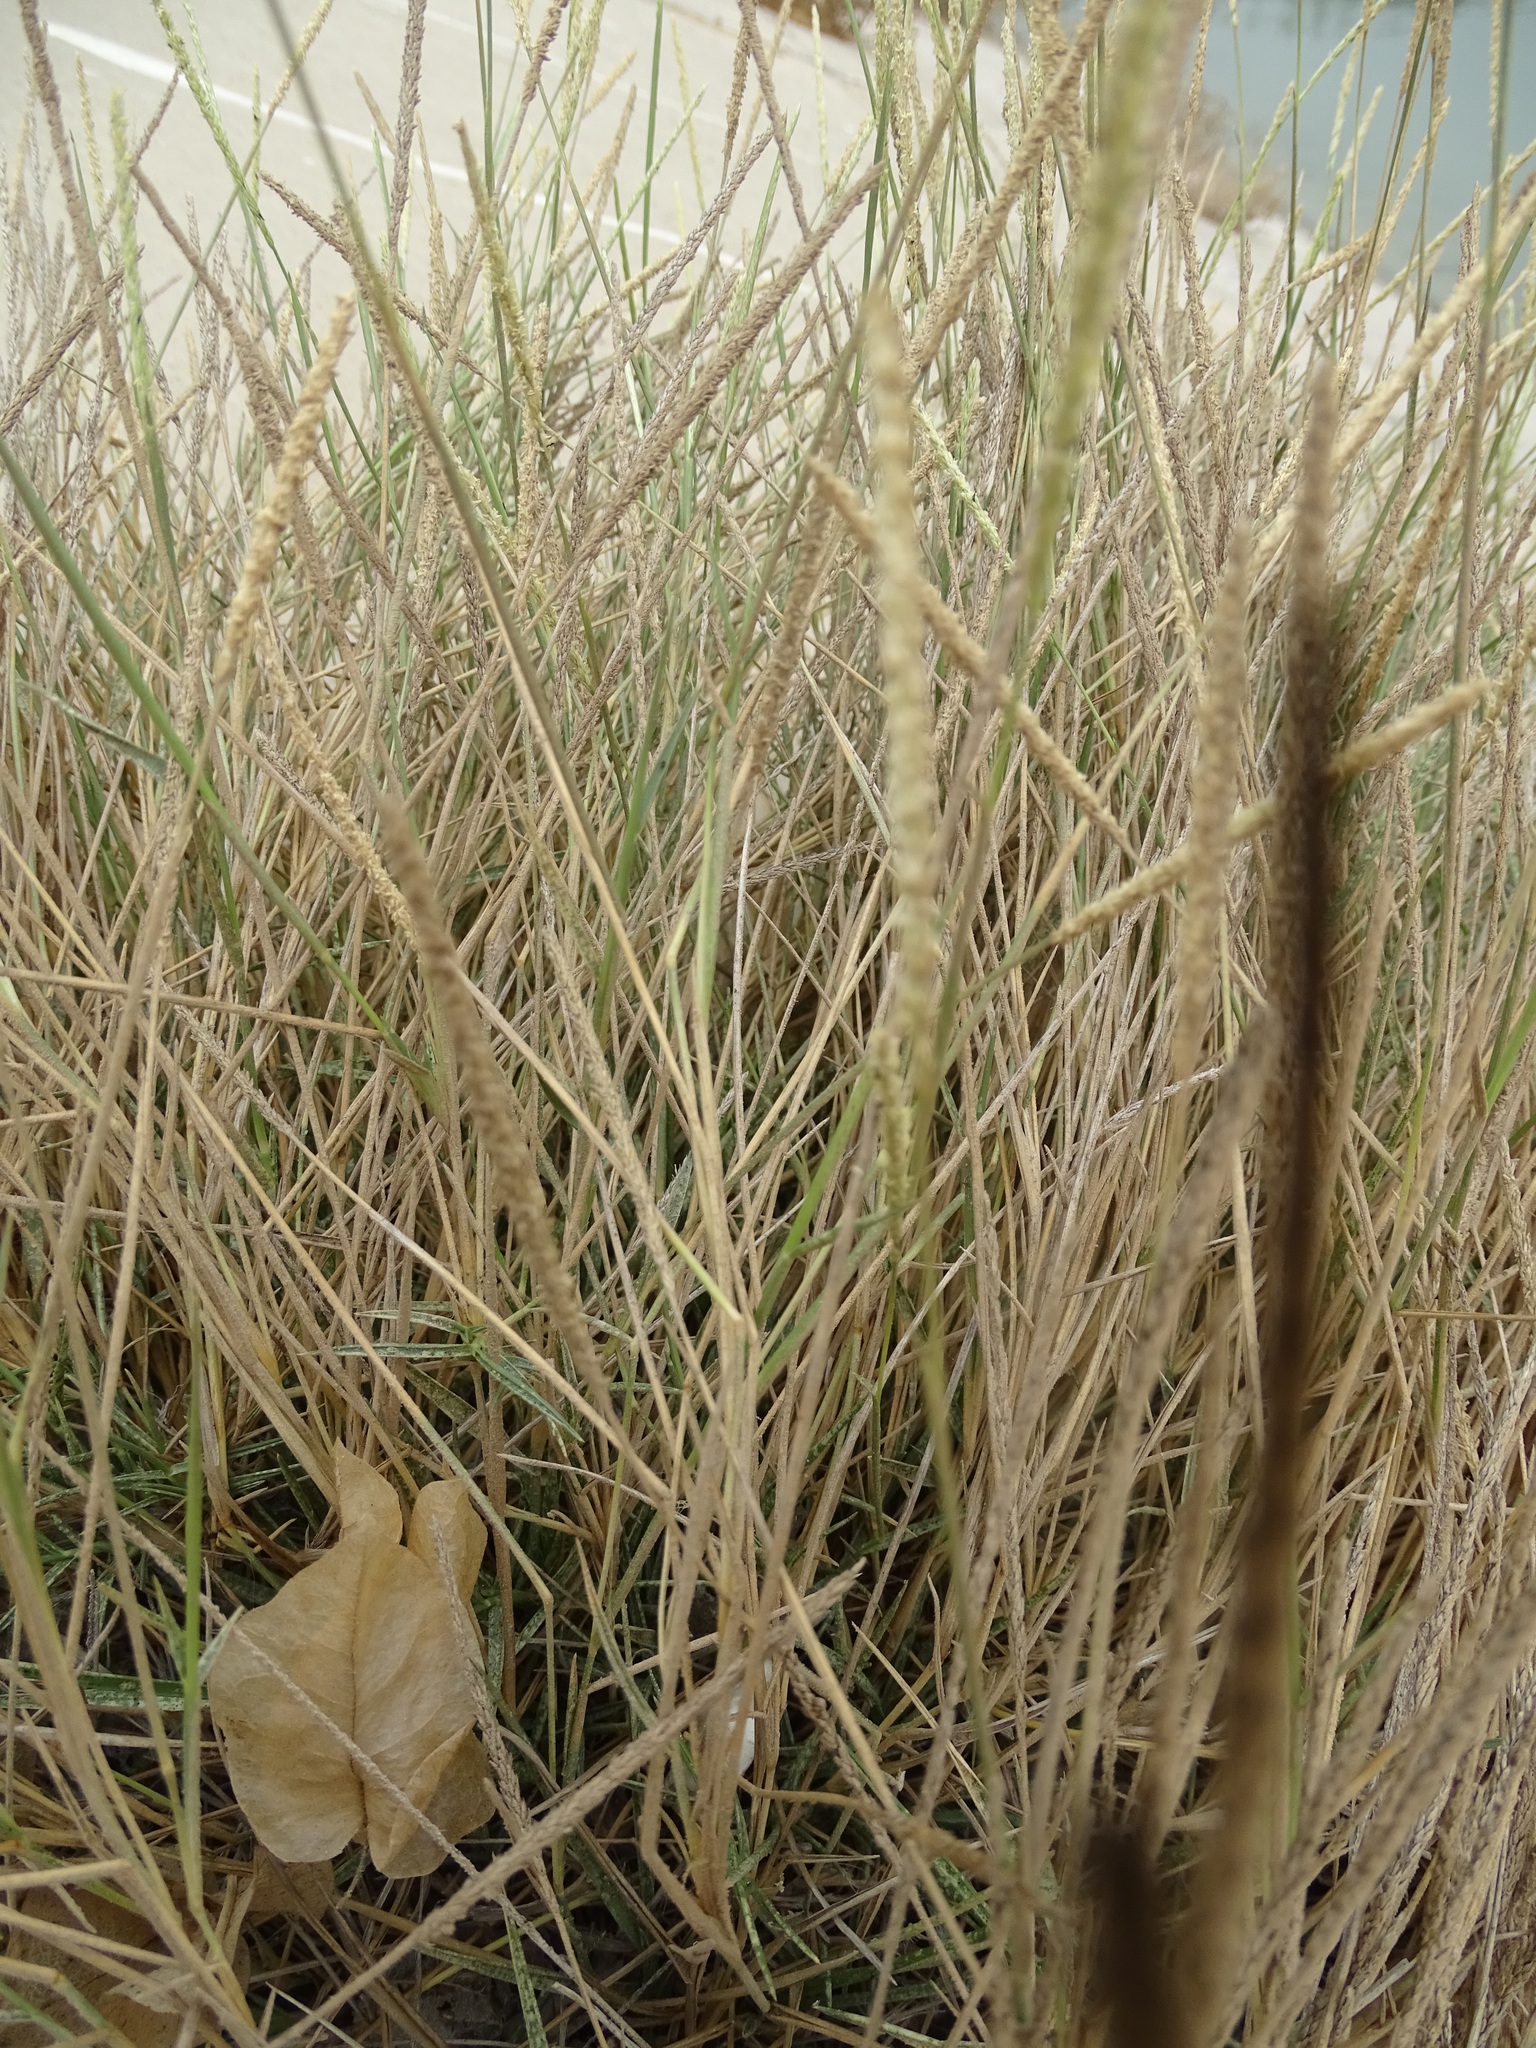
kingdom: Plantae
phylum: Tracheophyta
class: Liliopsida
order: Poales
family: Poaceae
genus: Sporobolus
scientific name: Sporobolus spicatus
